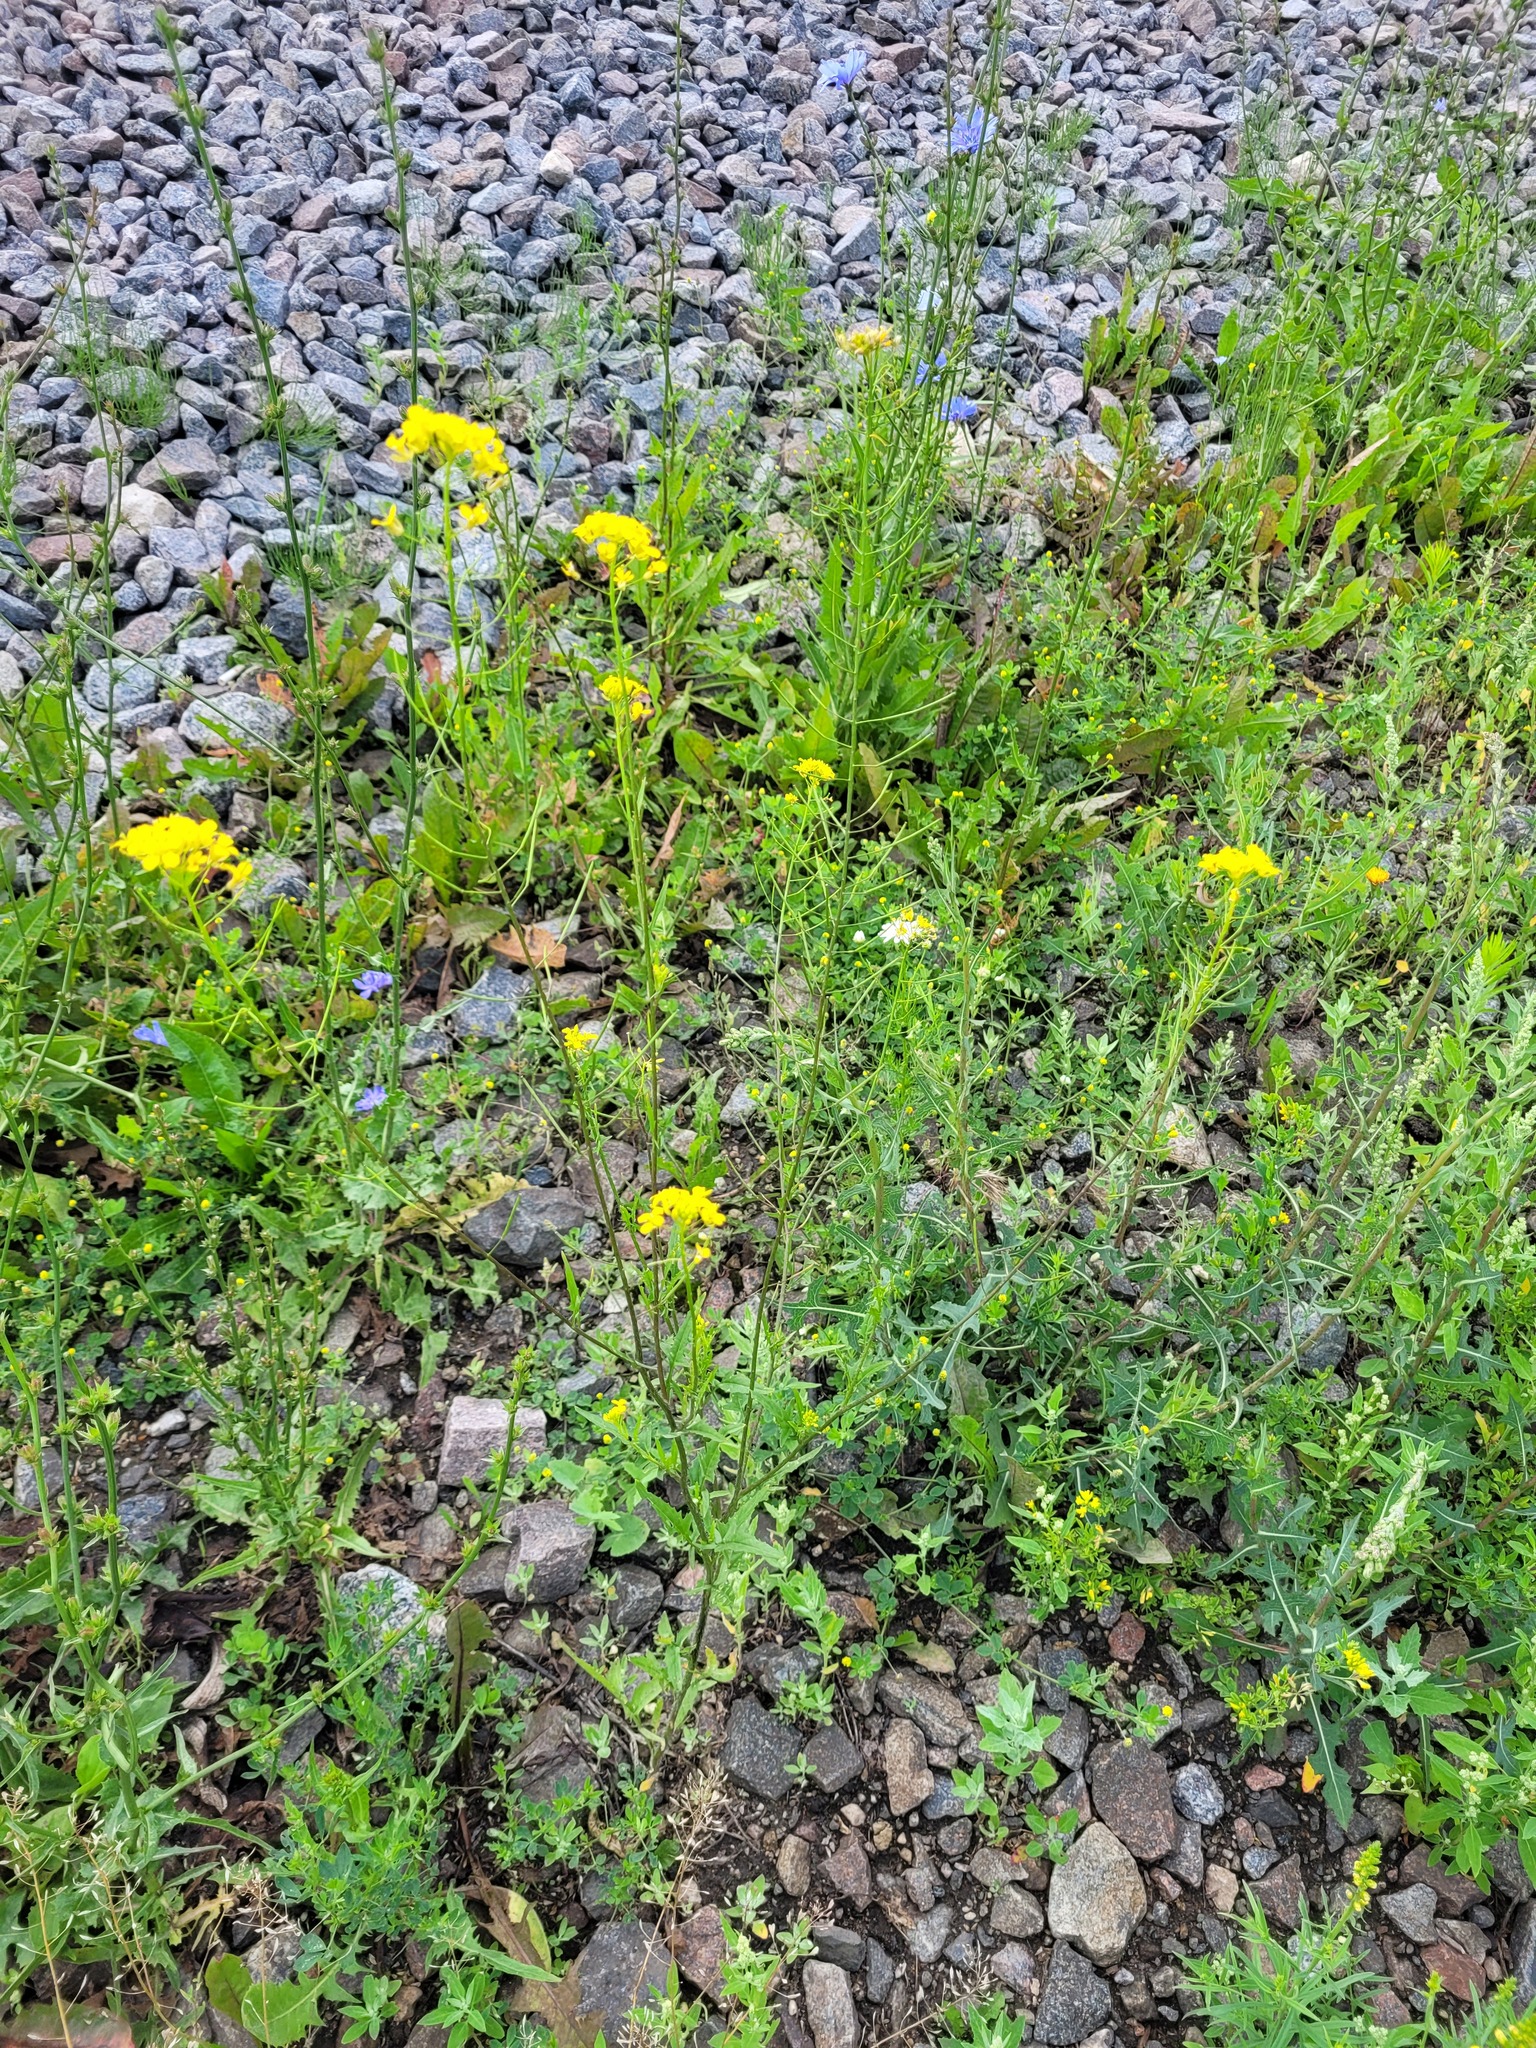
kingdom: Plantae
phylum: Tracheophyta
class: Magnoliopsida
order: Brassicales
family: Brassicaceae
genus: Sisymbrium
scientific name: Sisymbrium loeselii
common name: False london-rocket
